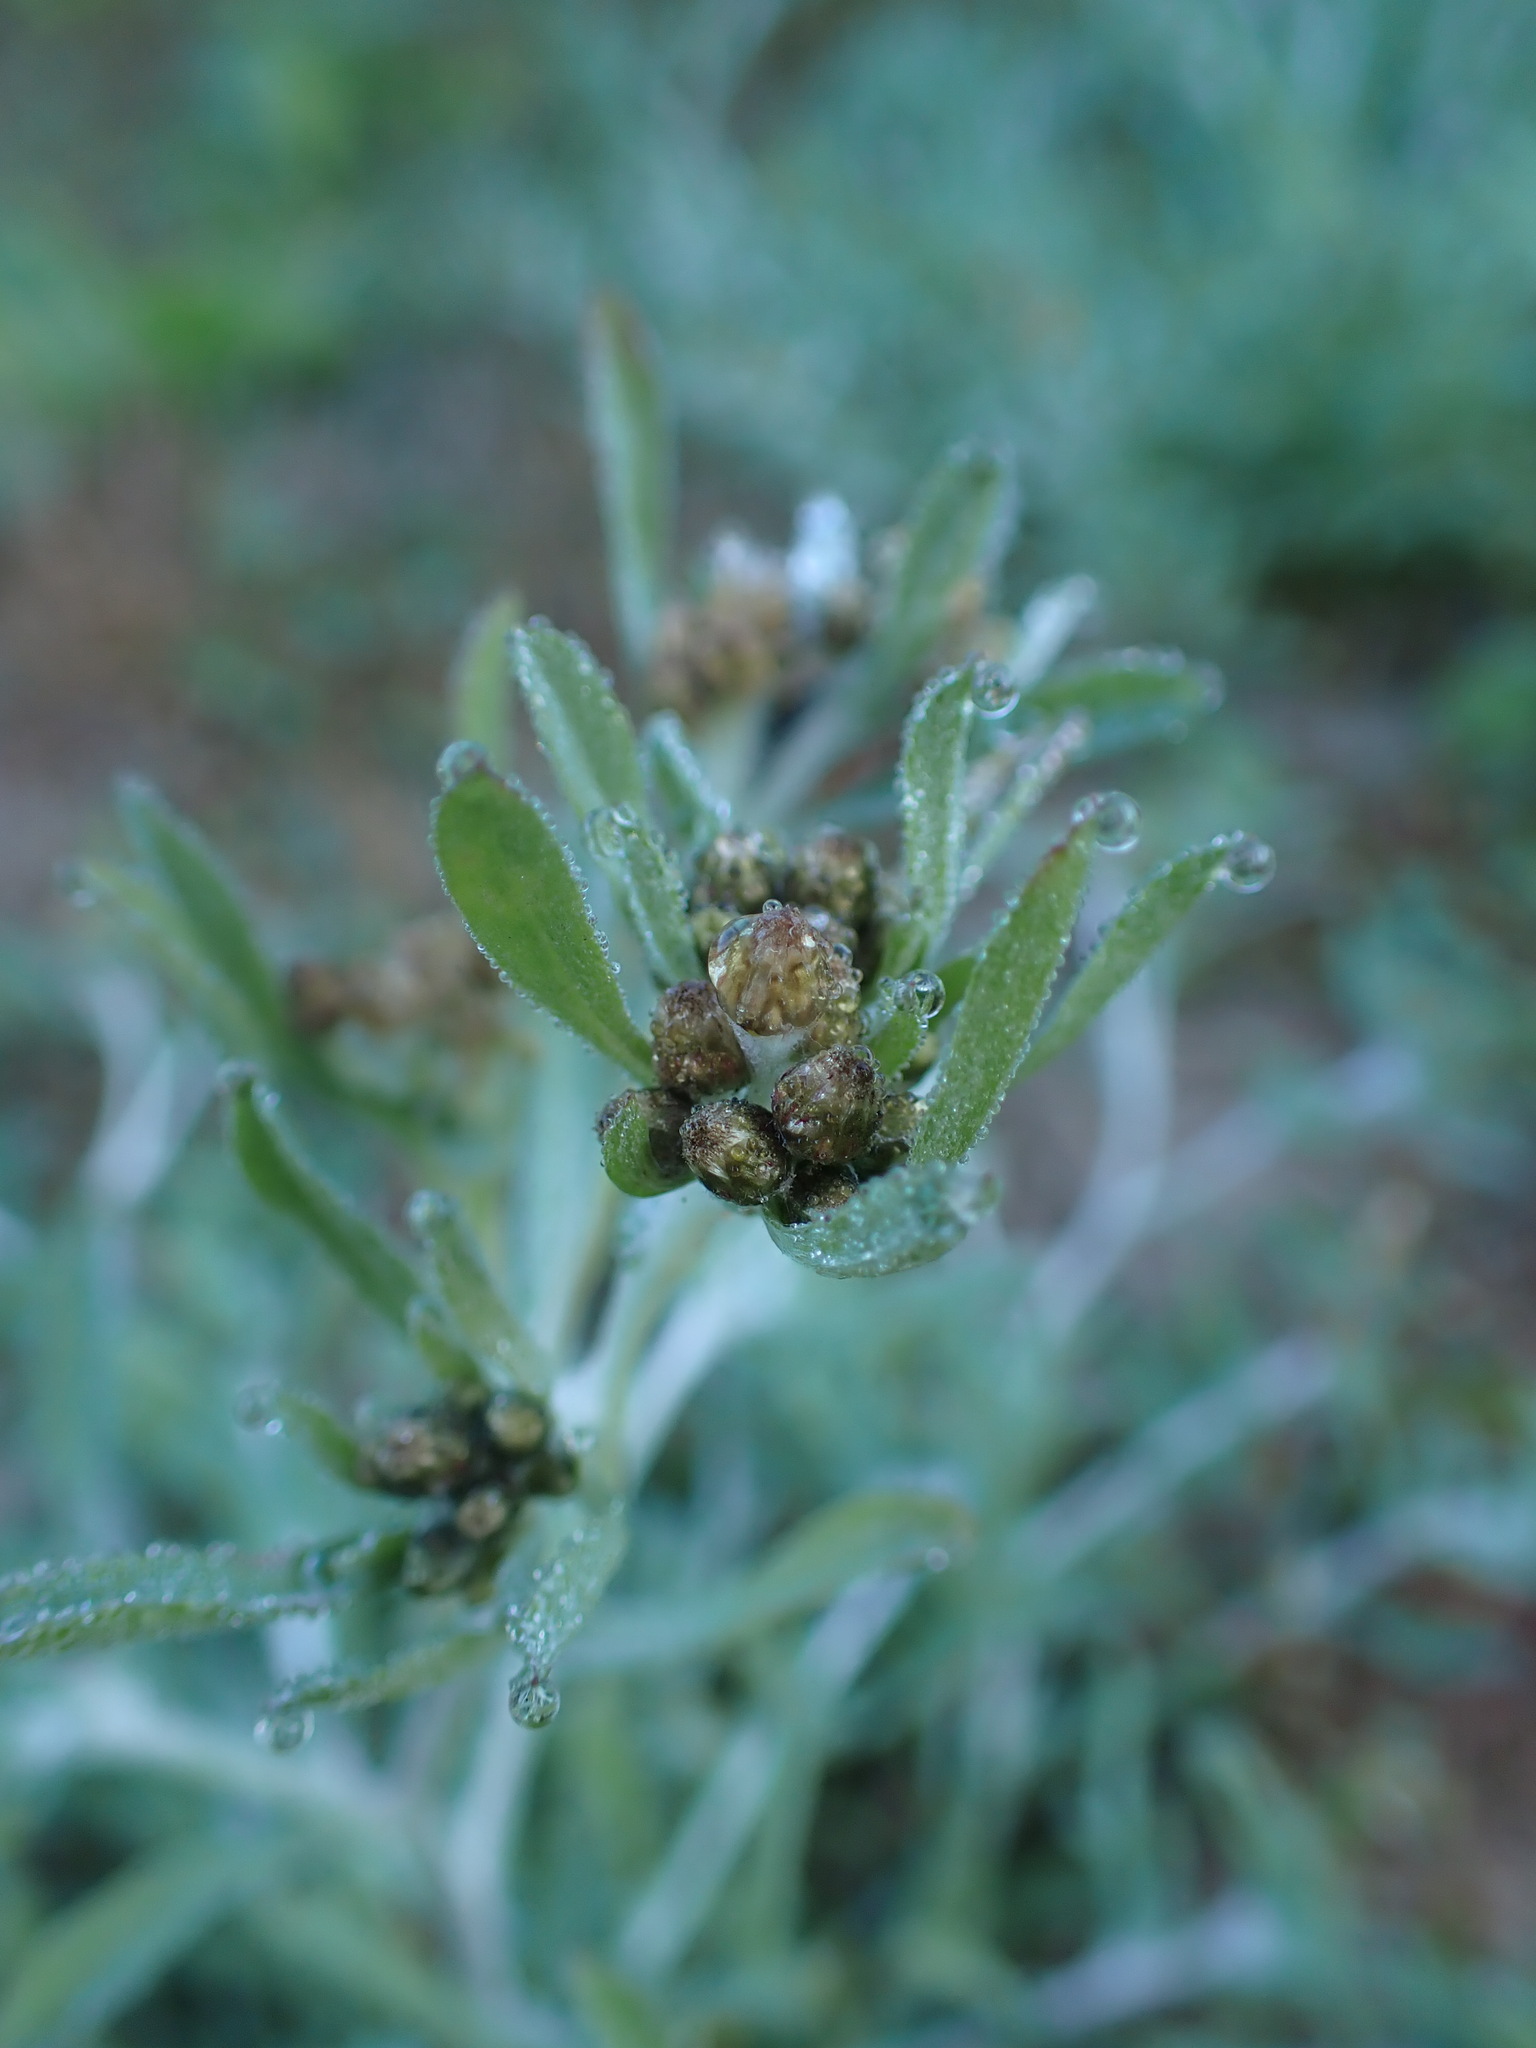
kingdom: Plantae
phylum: Tracheophyta
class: Magnoliopsida
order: Asterales
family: Asteraceae
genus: Gnaphalium
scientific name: Gnaphalium uliginosum
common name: Marsh cudweed
